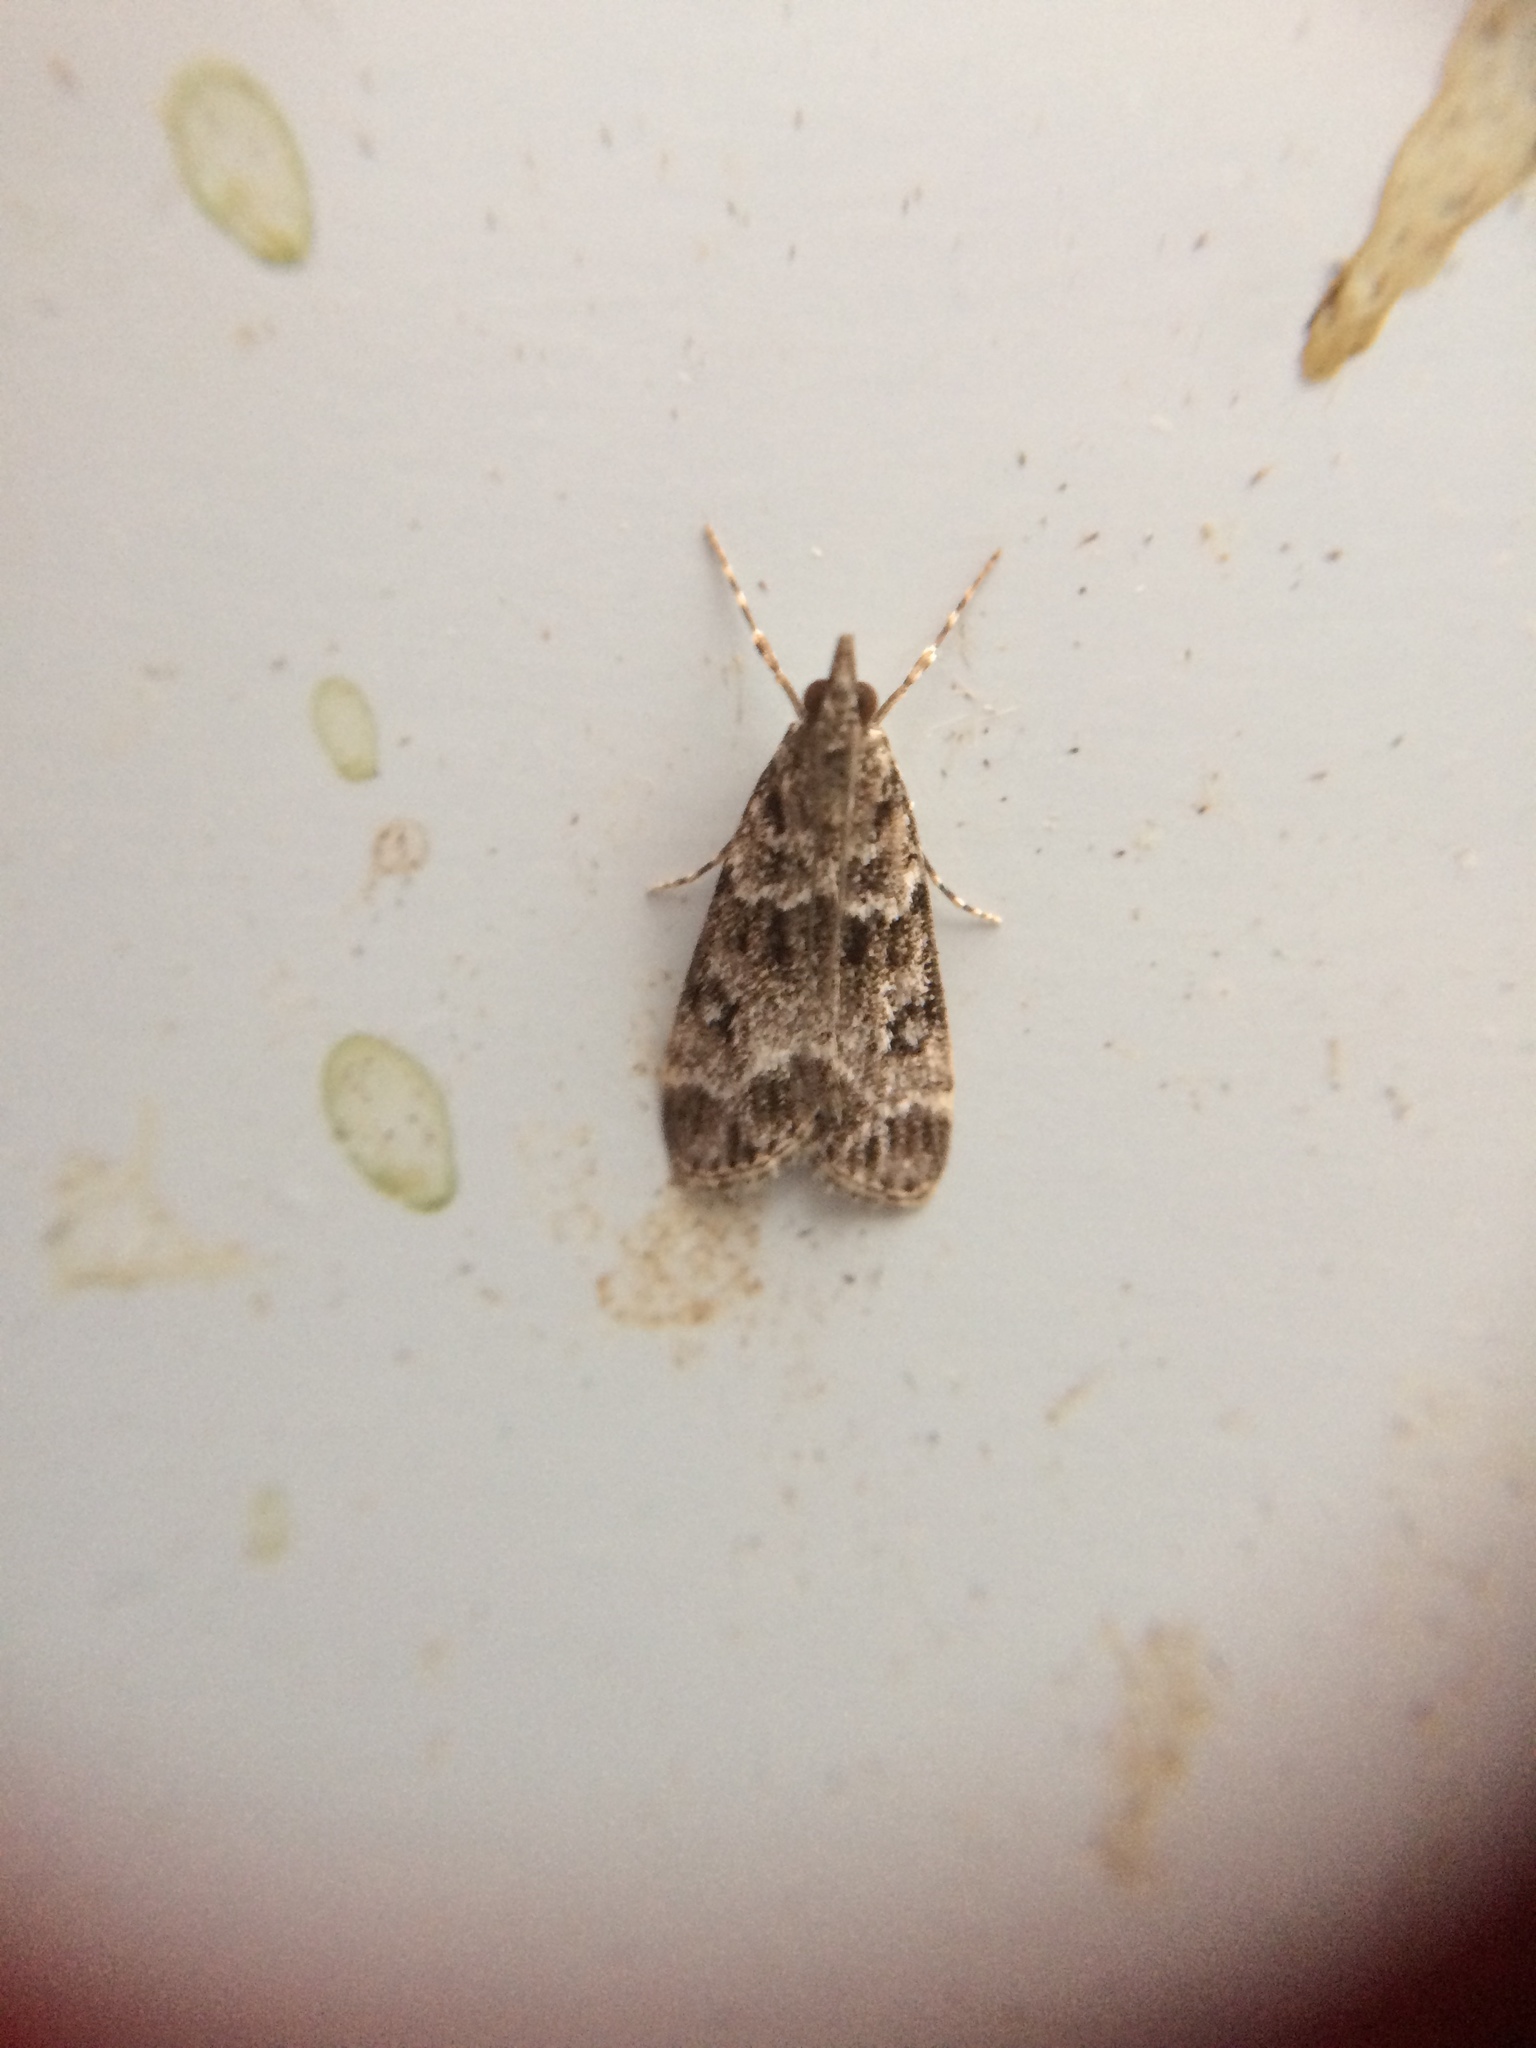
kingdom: Animalia
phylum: Arthropoda
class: Insecta
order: Lepidoptera
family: Crambidae
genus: Eudonia
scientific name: Eudonia mercurella
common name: Small grey
